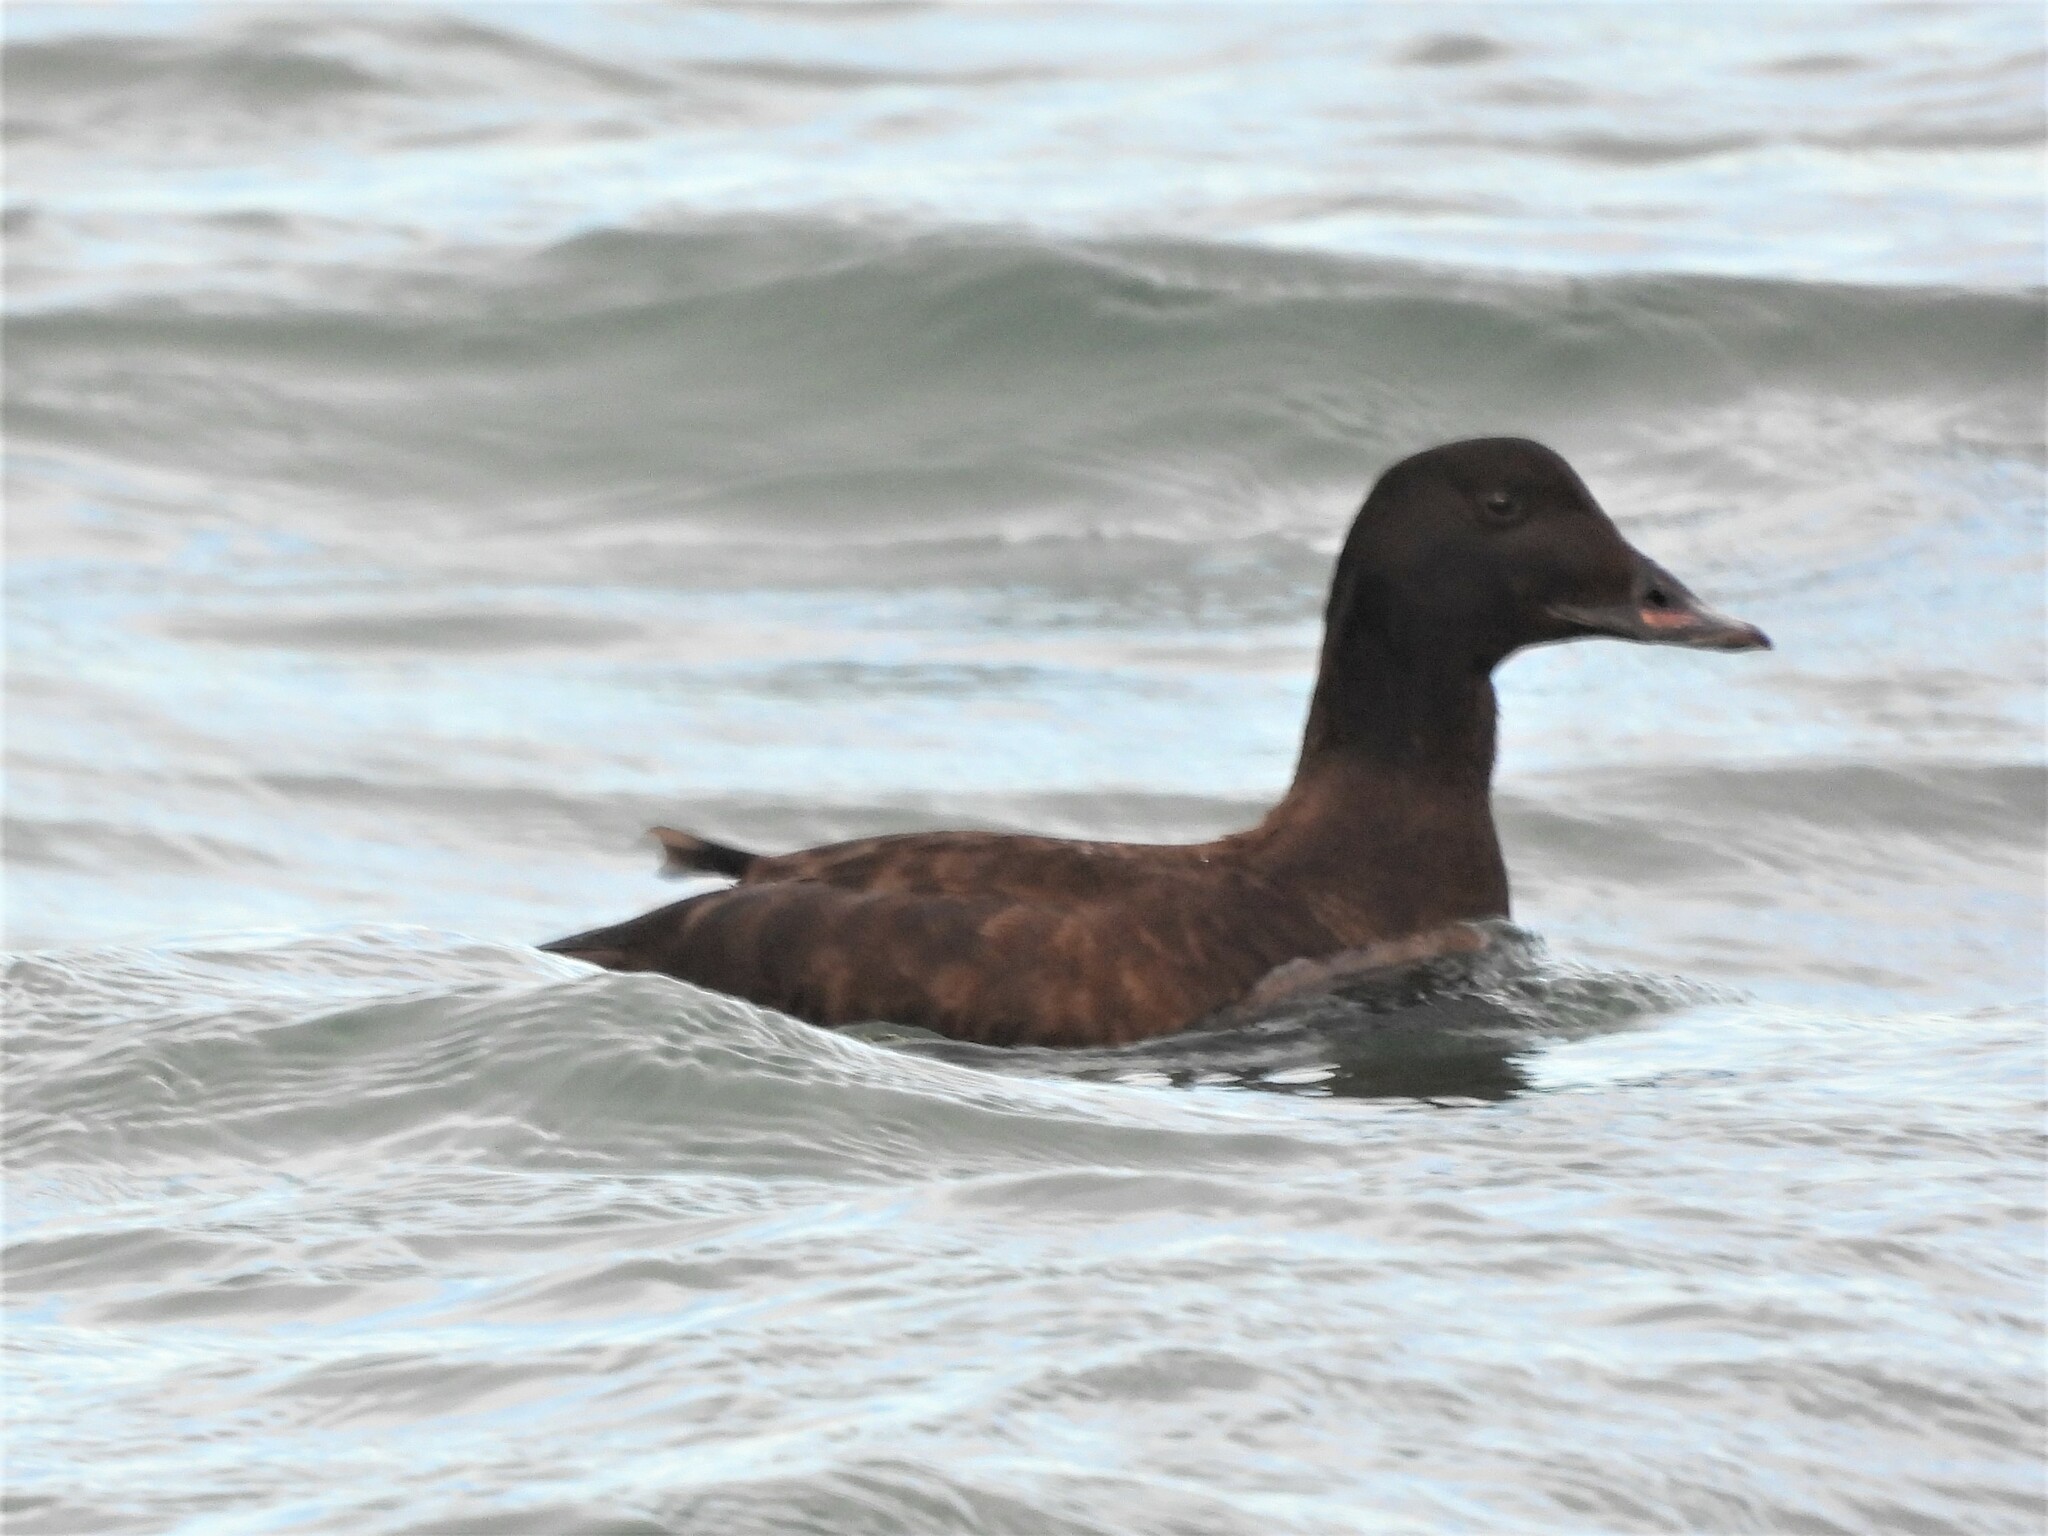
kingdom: Animalia
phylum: Chordata
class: Aves
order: Anseriformes
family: Anatidae
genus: Melanitta
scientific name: Melanitta deglandi
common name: White-winged scoter
